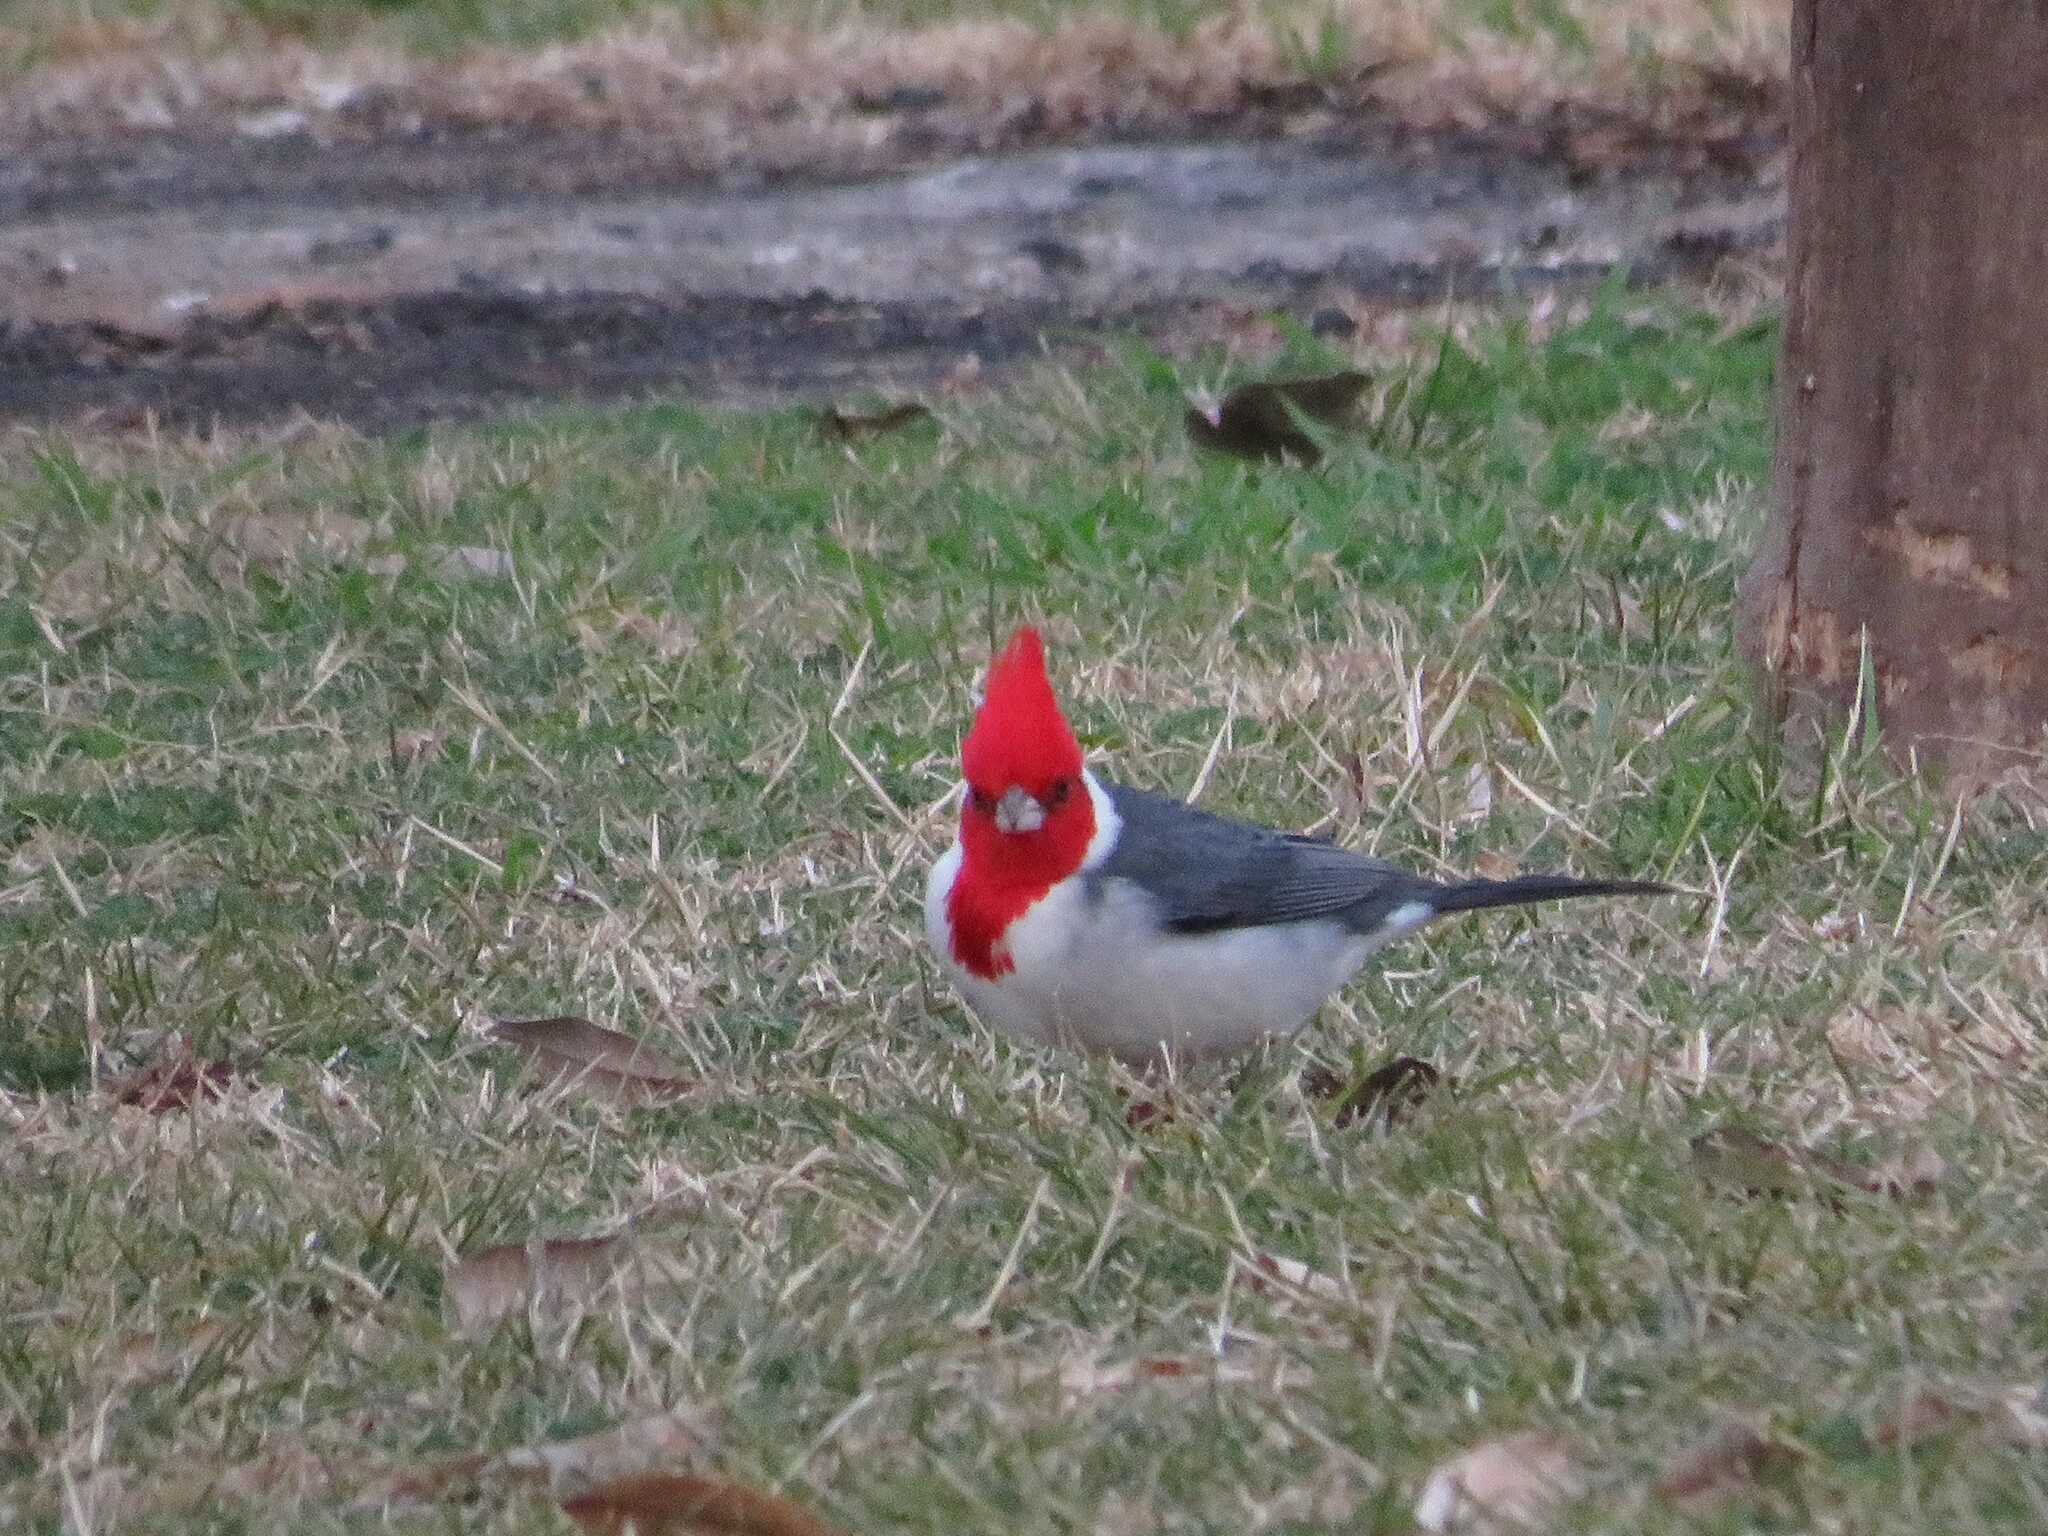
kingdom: Animalia
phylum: Chordata
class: Aves
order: Passeriformes
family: Thraupidae
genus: Paroaria
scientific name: Paroaria coronata
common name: Red-crested cardinal
